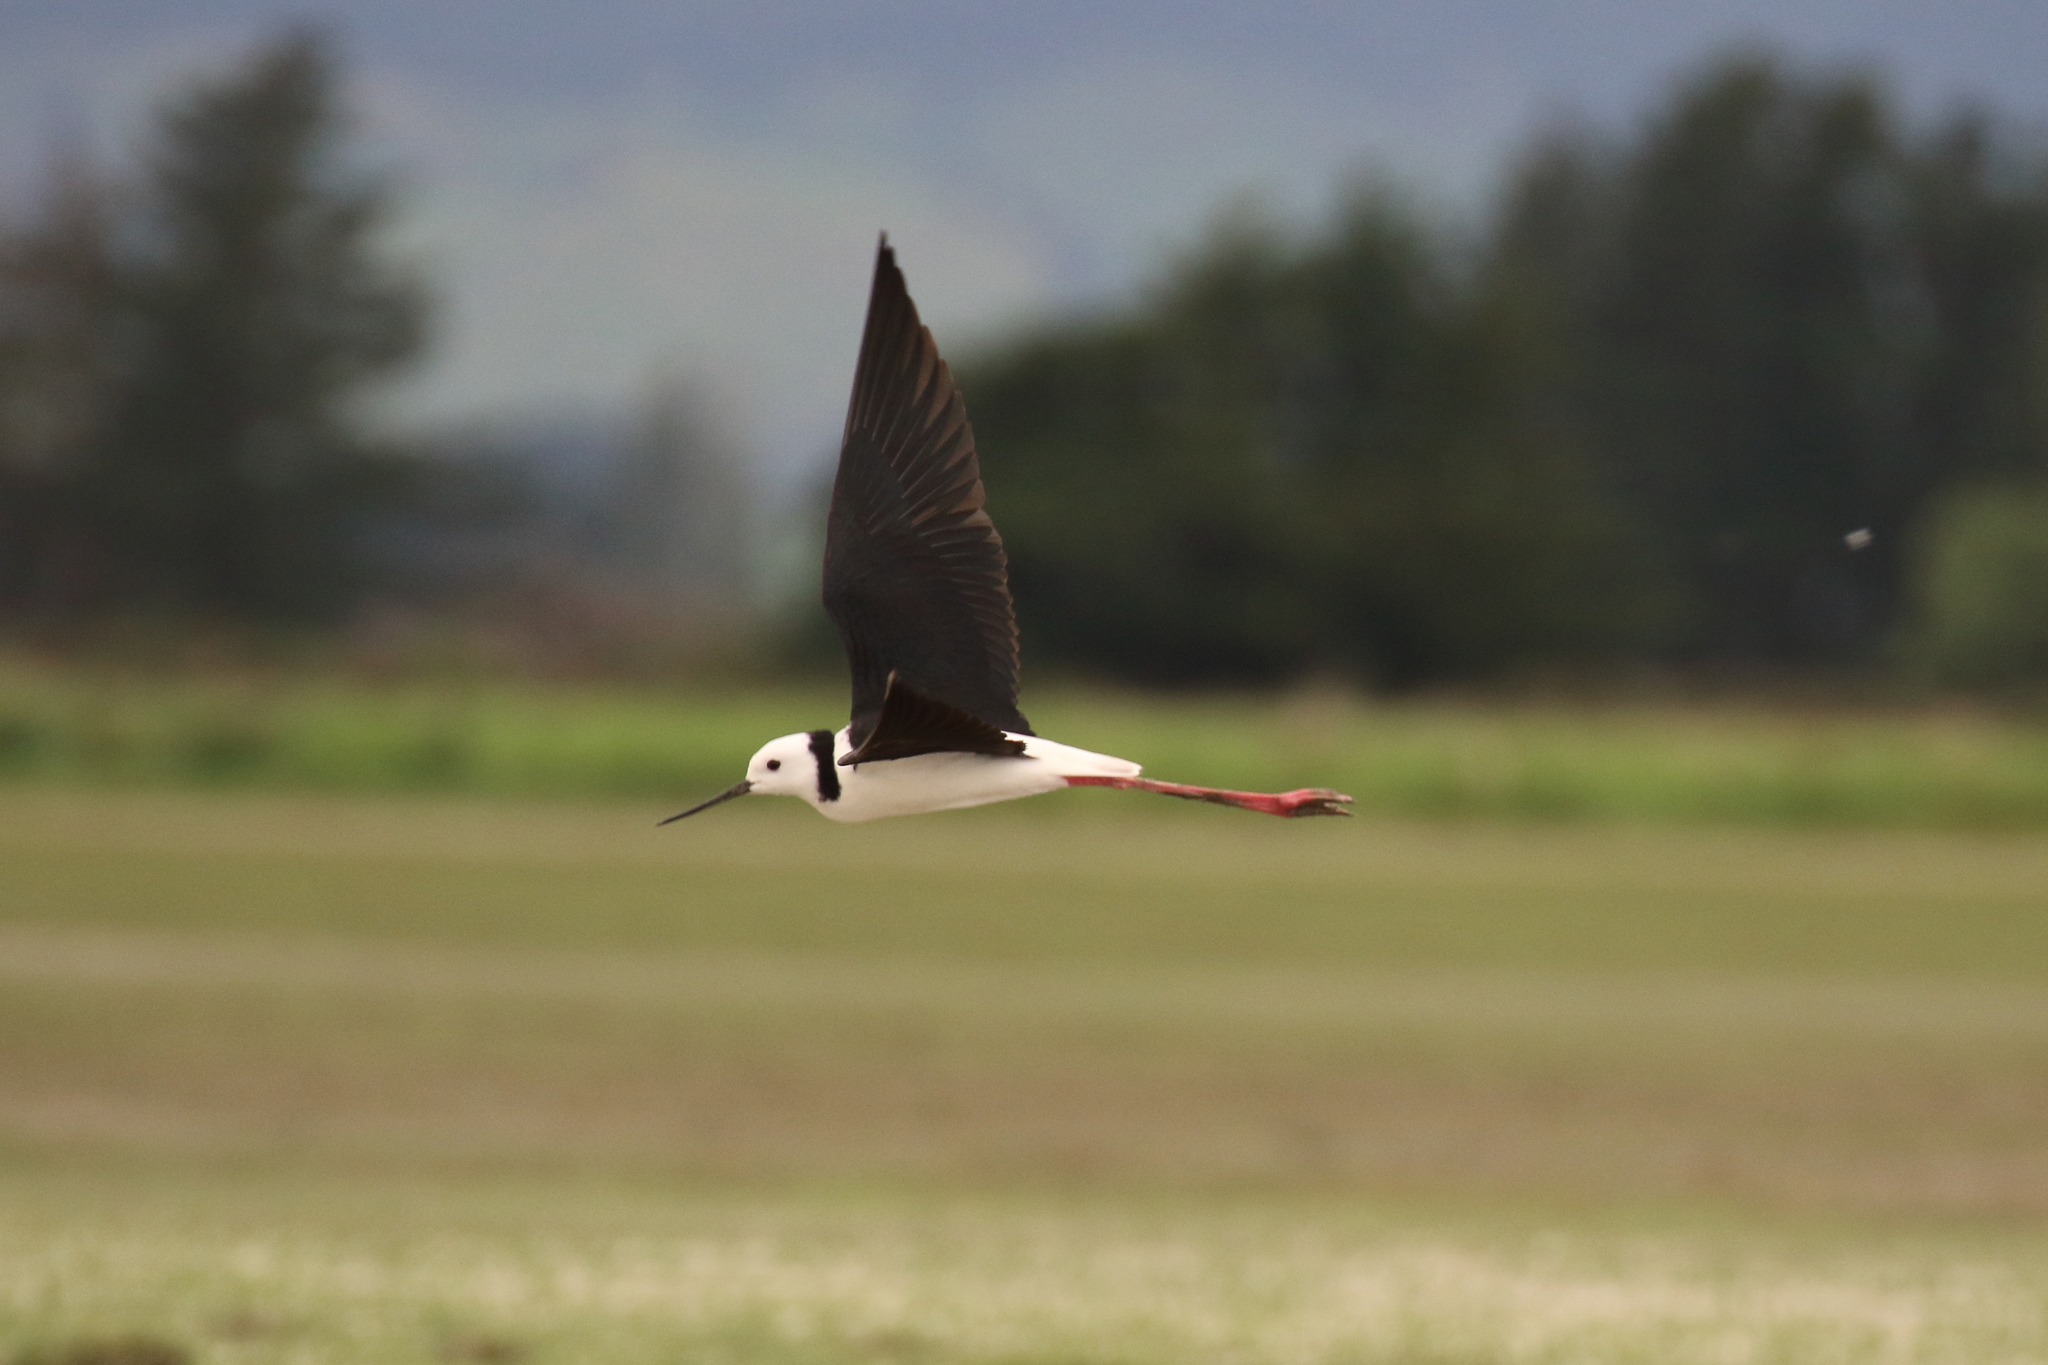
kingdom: Animalia
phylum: Chordata
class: Aves
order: Charadriiformes
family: Recurvirostridae
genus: Himantopus
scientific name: Himantopus leucocephalus
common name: White-headed stilt
